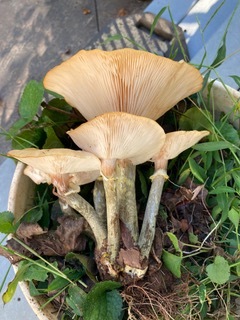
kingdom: Fungi
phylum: Basidiomycota
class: Agaricomycetes
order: Agaricales
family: Physalacriaceae
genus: Armillaria
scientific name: Armillaria mellea
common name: Honey fungus
